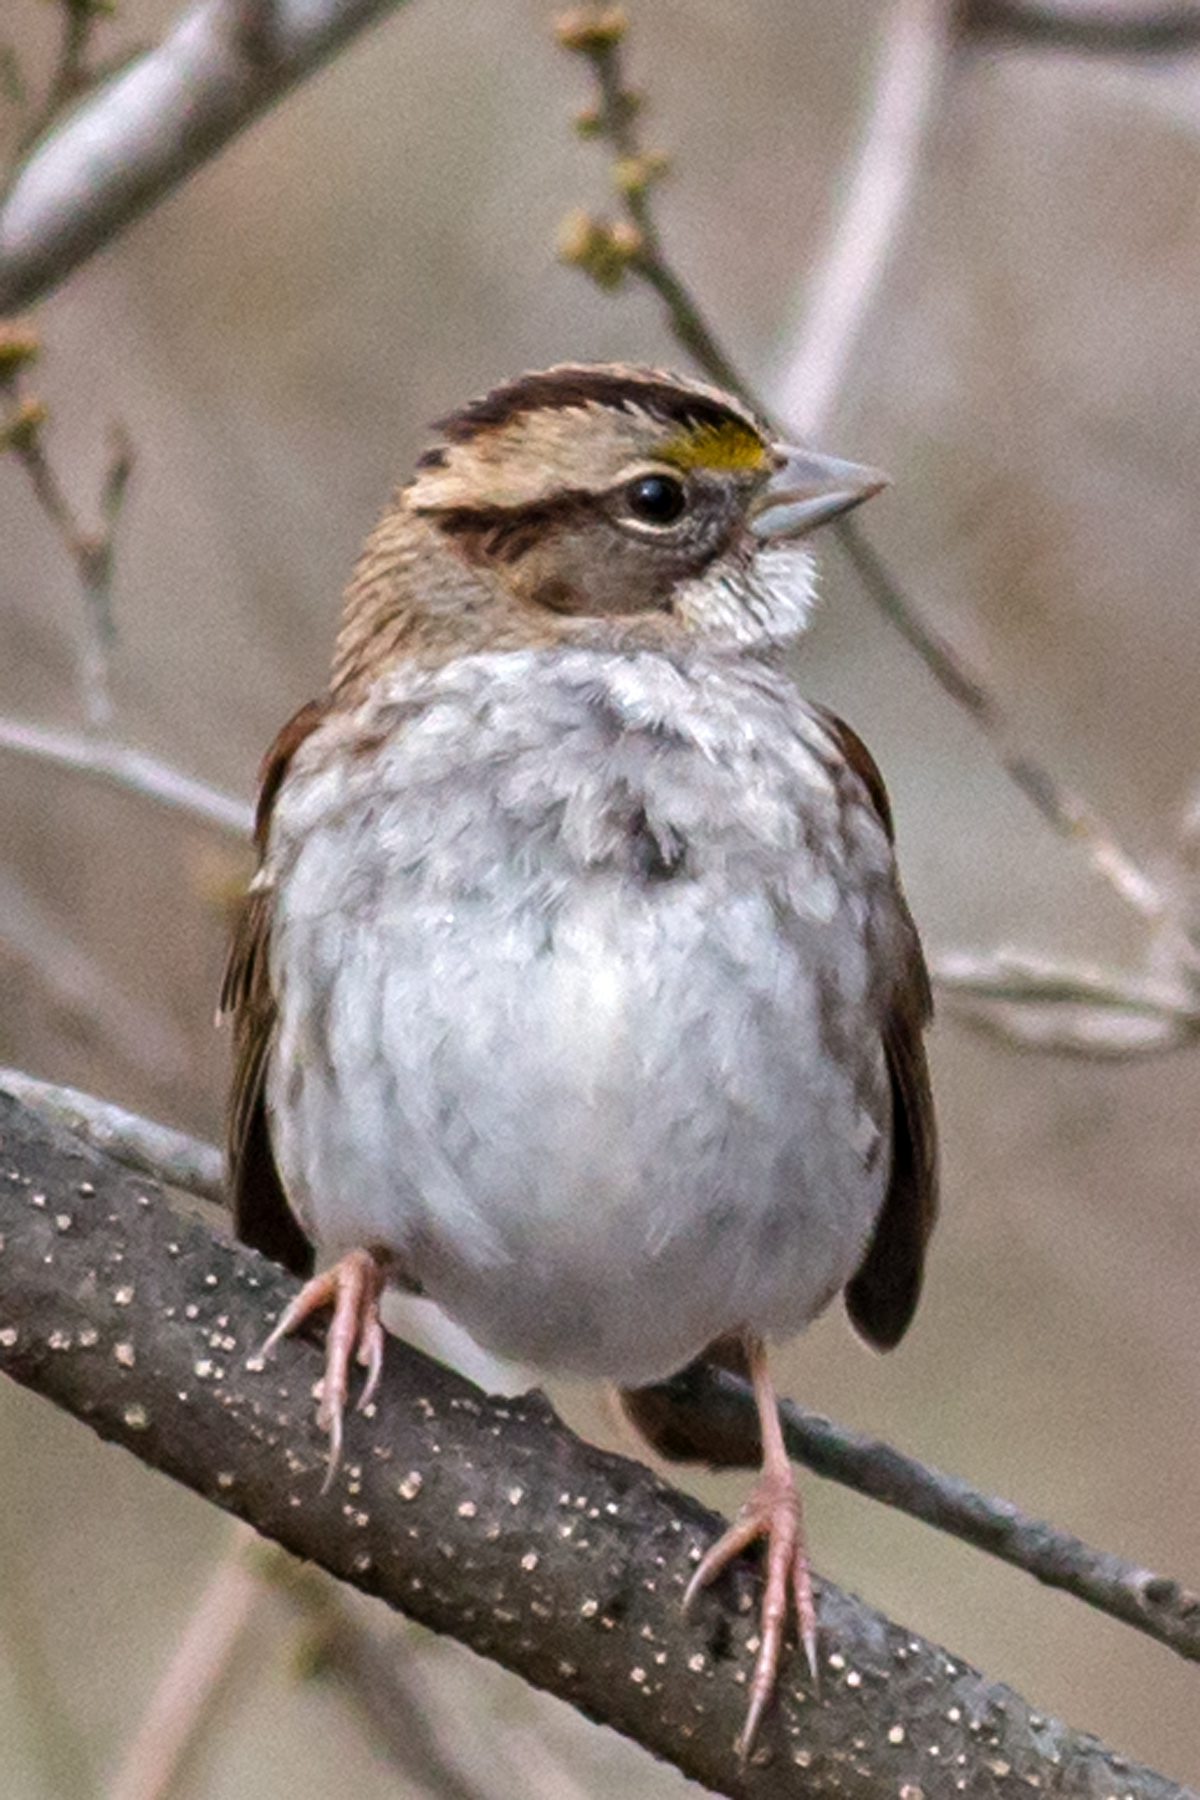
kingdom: Animalia
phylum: Chordata
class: Aves
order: Passeriformes
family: Passerellidae
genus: Zonotrichia
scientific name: Zonotrichia albicollis
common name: White-throated sparrow
